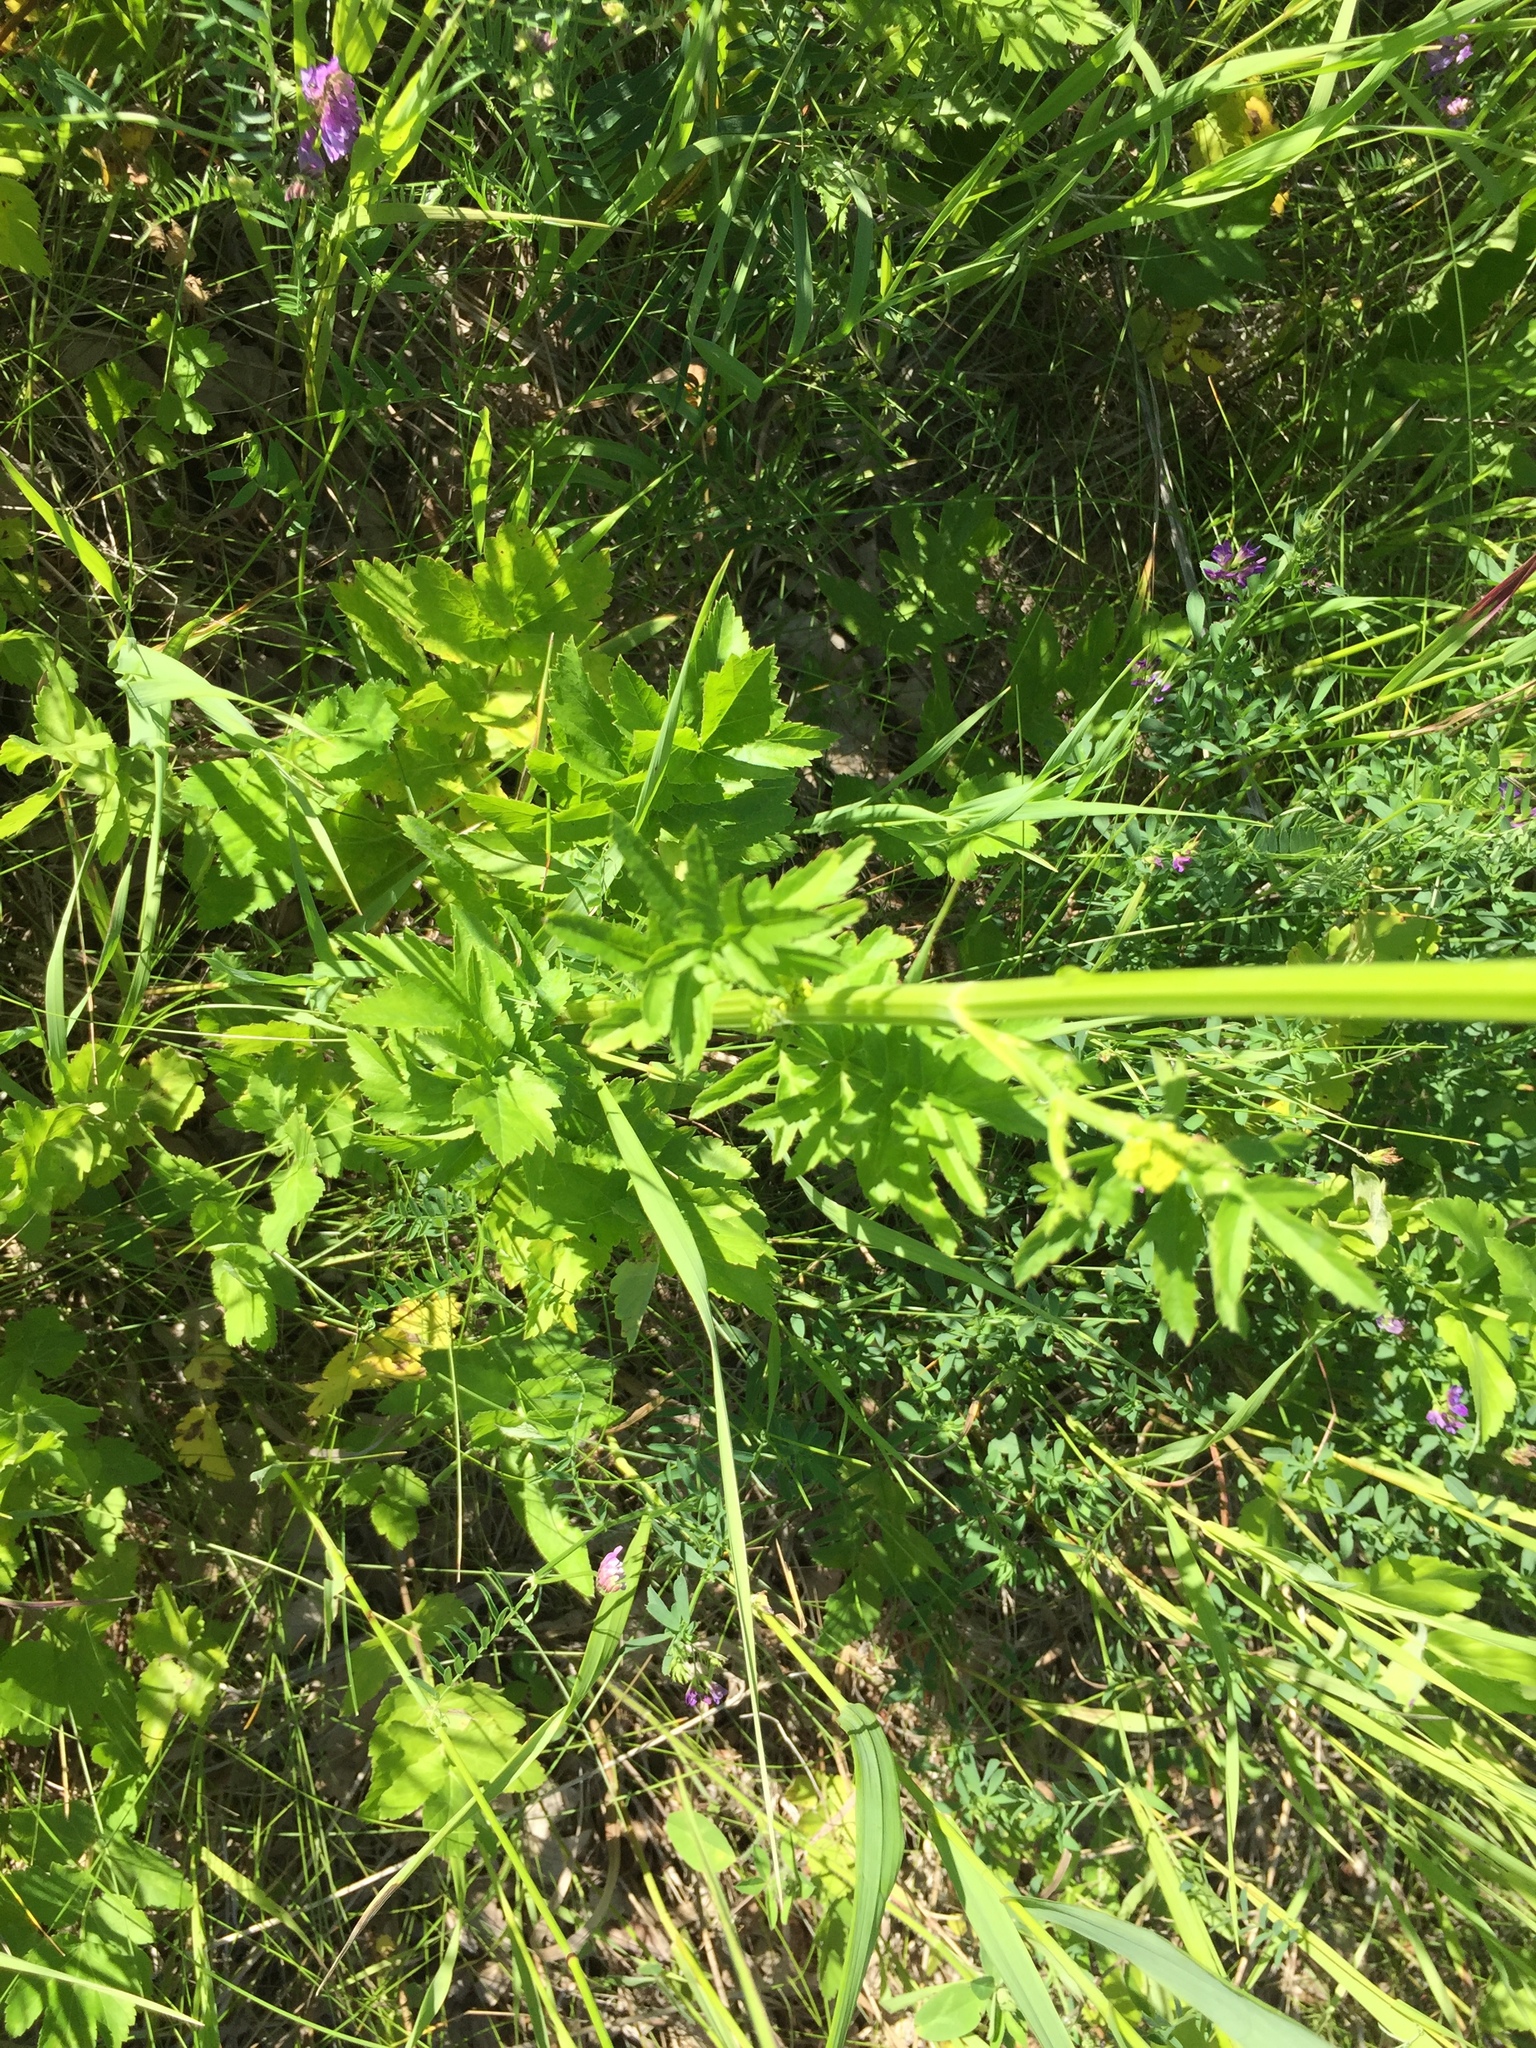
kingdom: Plantae
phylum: Tracheophyta
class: Magnoliopsida
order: Apiales
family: Apiaceae
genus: Pastinaca
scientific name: Pastinaca sativa
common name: Wild parsnip
